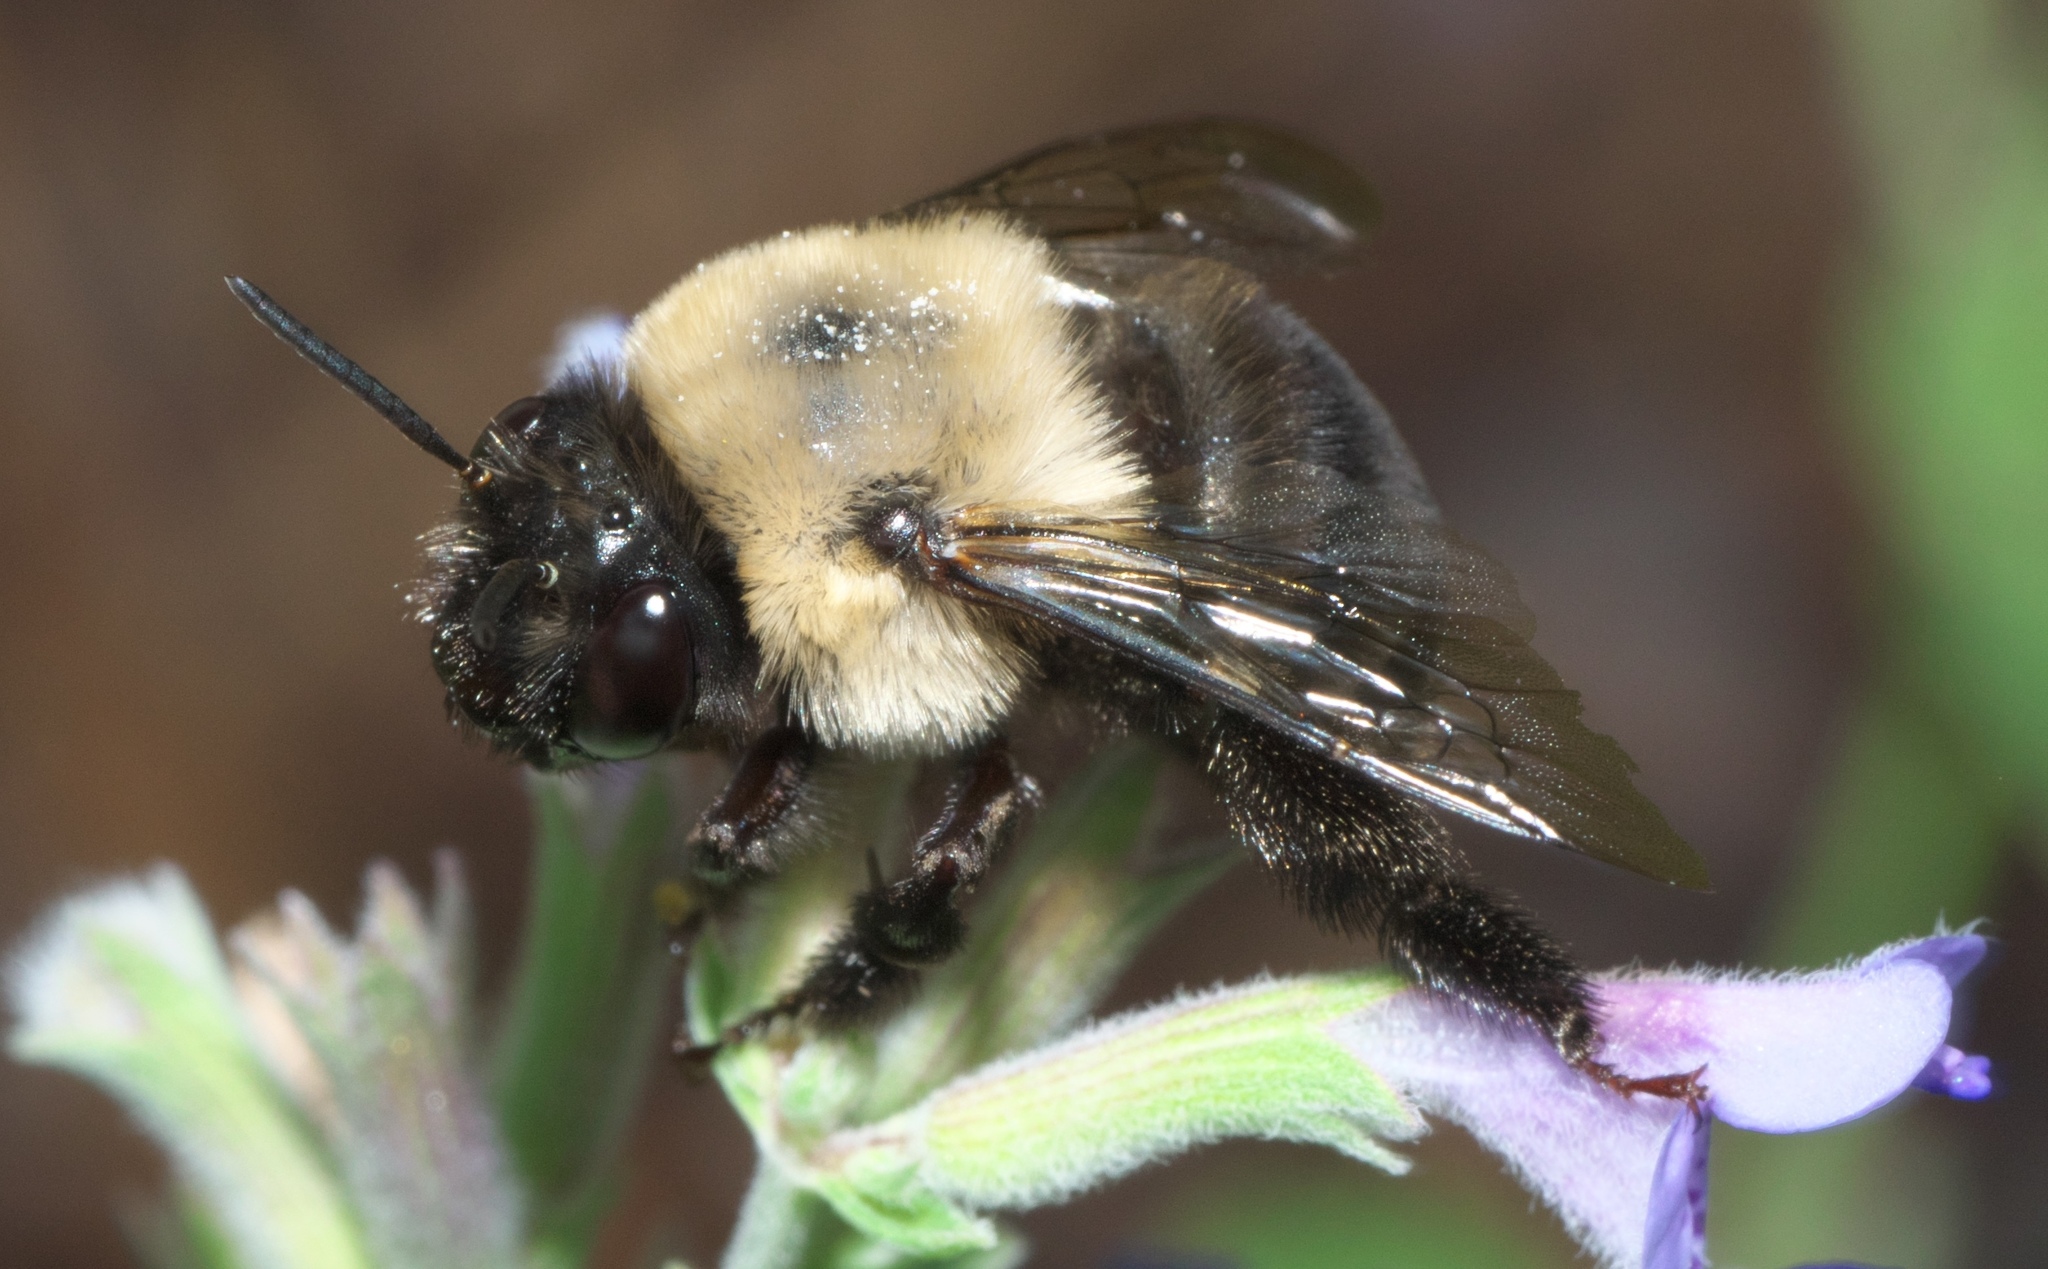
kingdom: Animalia
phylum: Arthropoda
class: Insecta
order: Hymenoptera
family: Apidae
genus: Anthophora
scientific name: Anthophora abrupta
